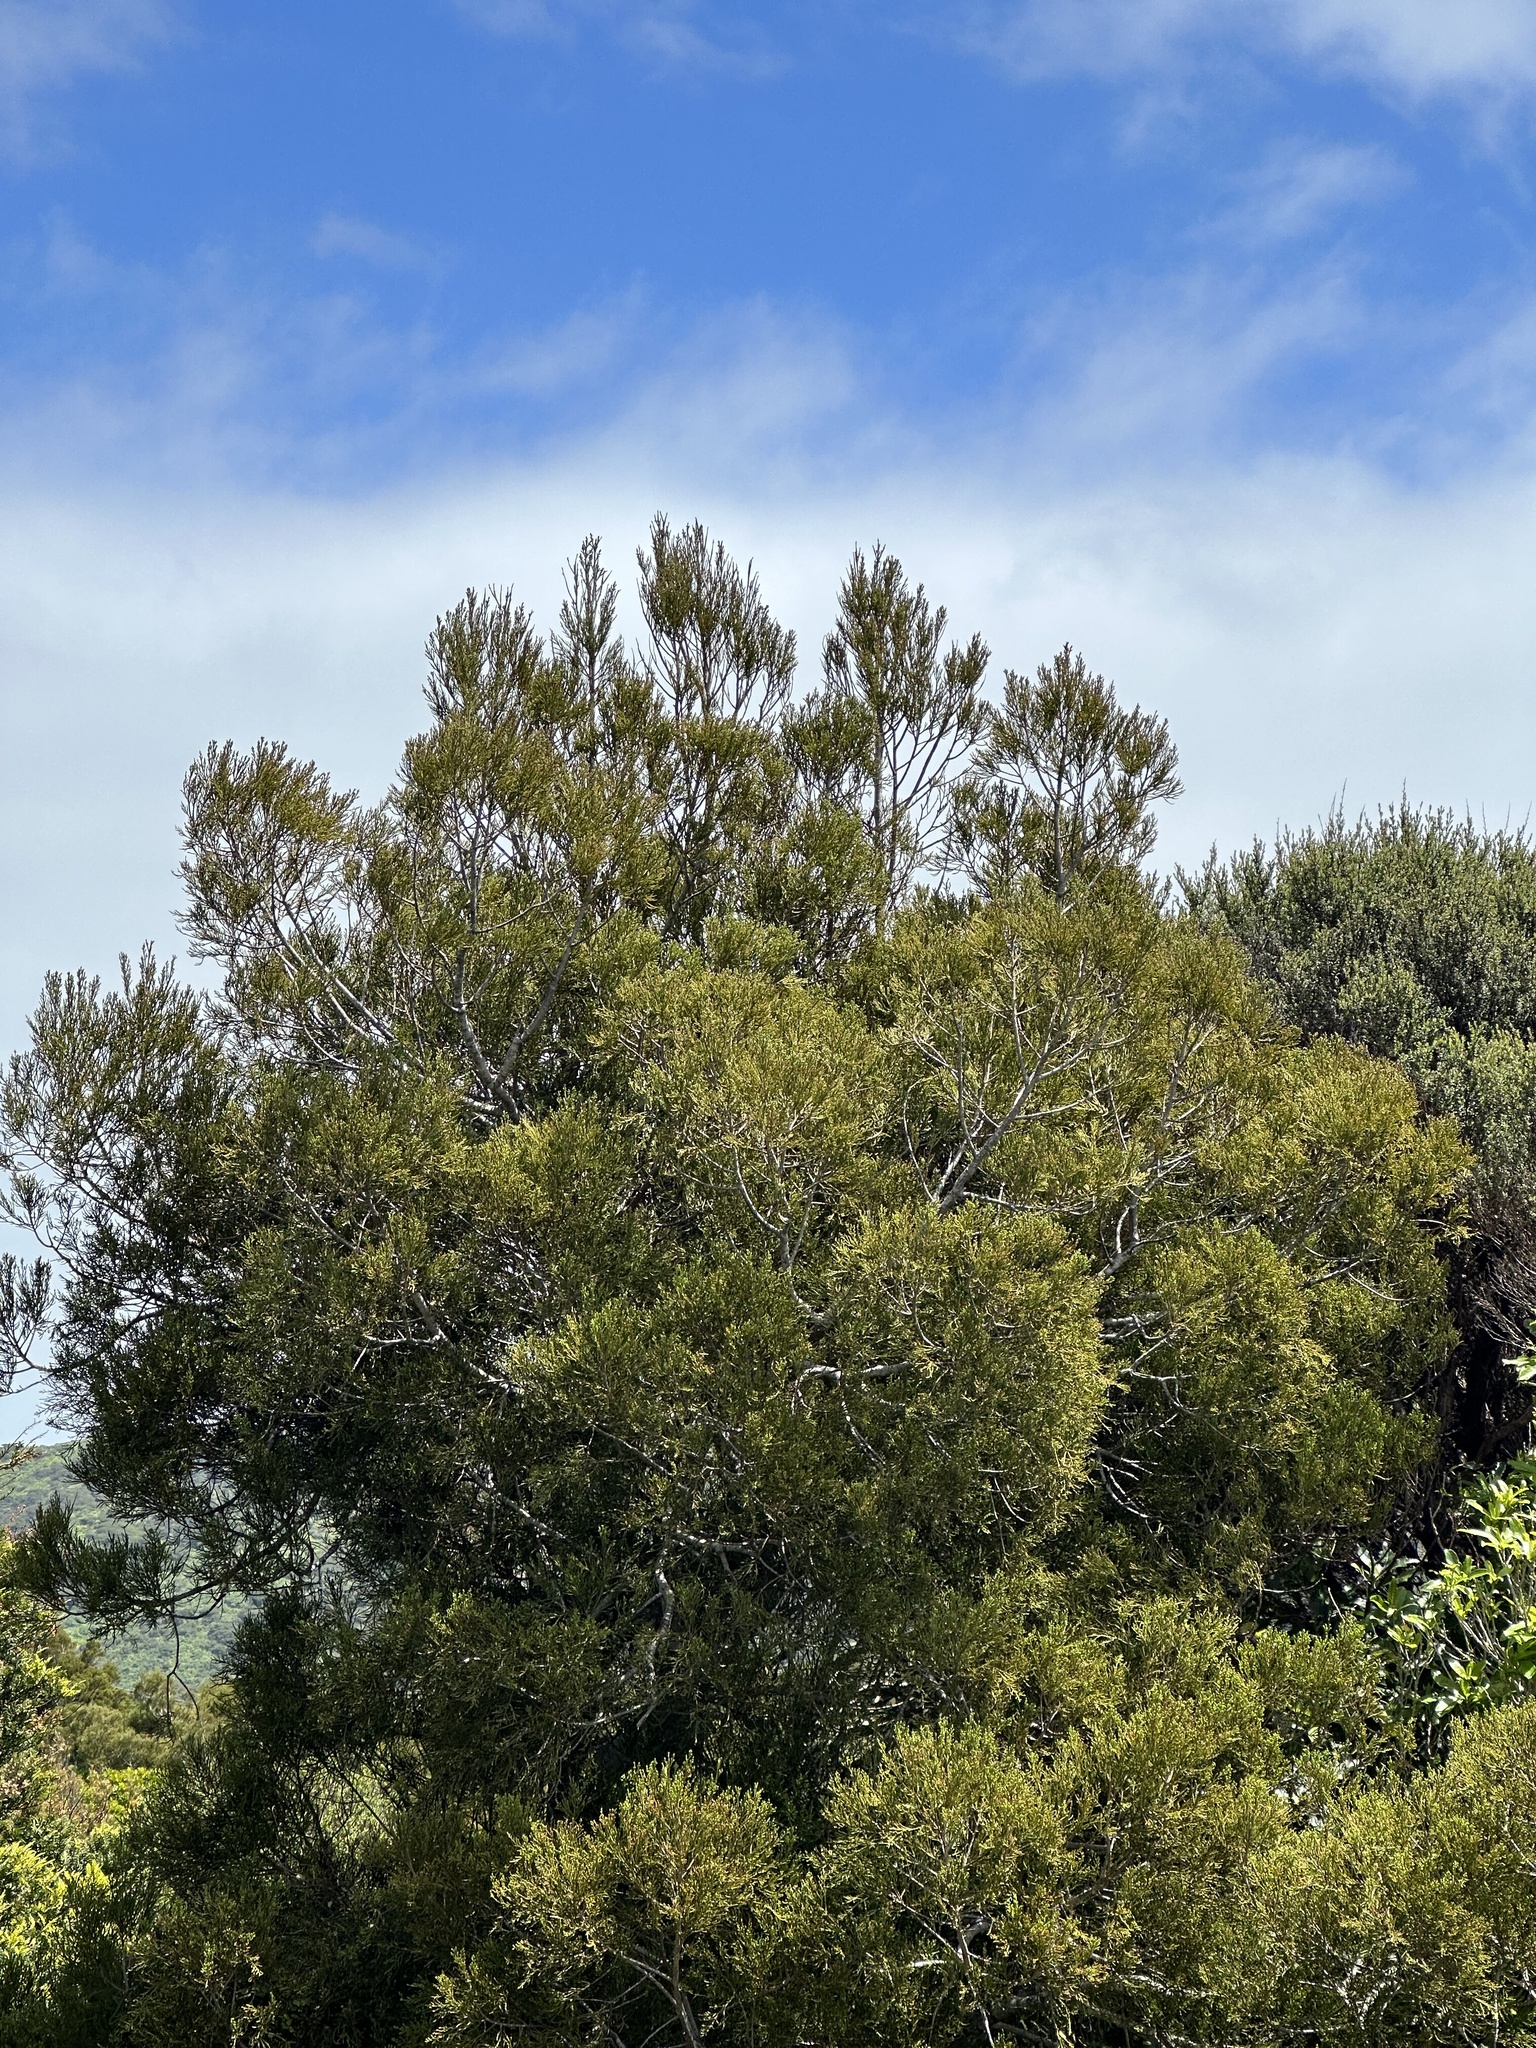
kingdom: Plantae
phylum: Tracheophyta
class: Pinopsida
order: Pinales
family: Podocarpaceae
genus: Dacrycarpus
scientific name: Dacrycarpus dacrydioides
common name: White pine
